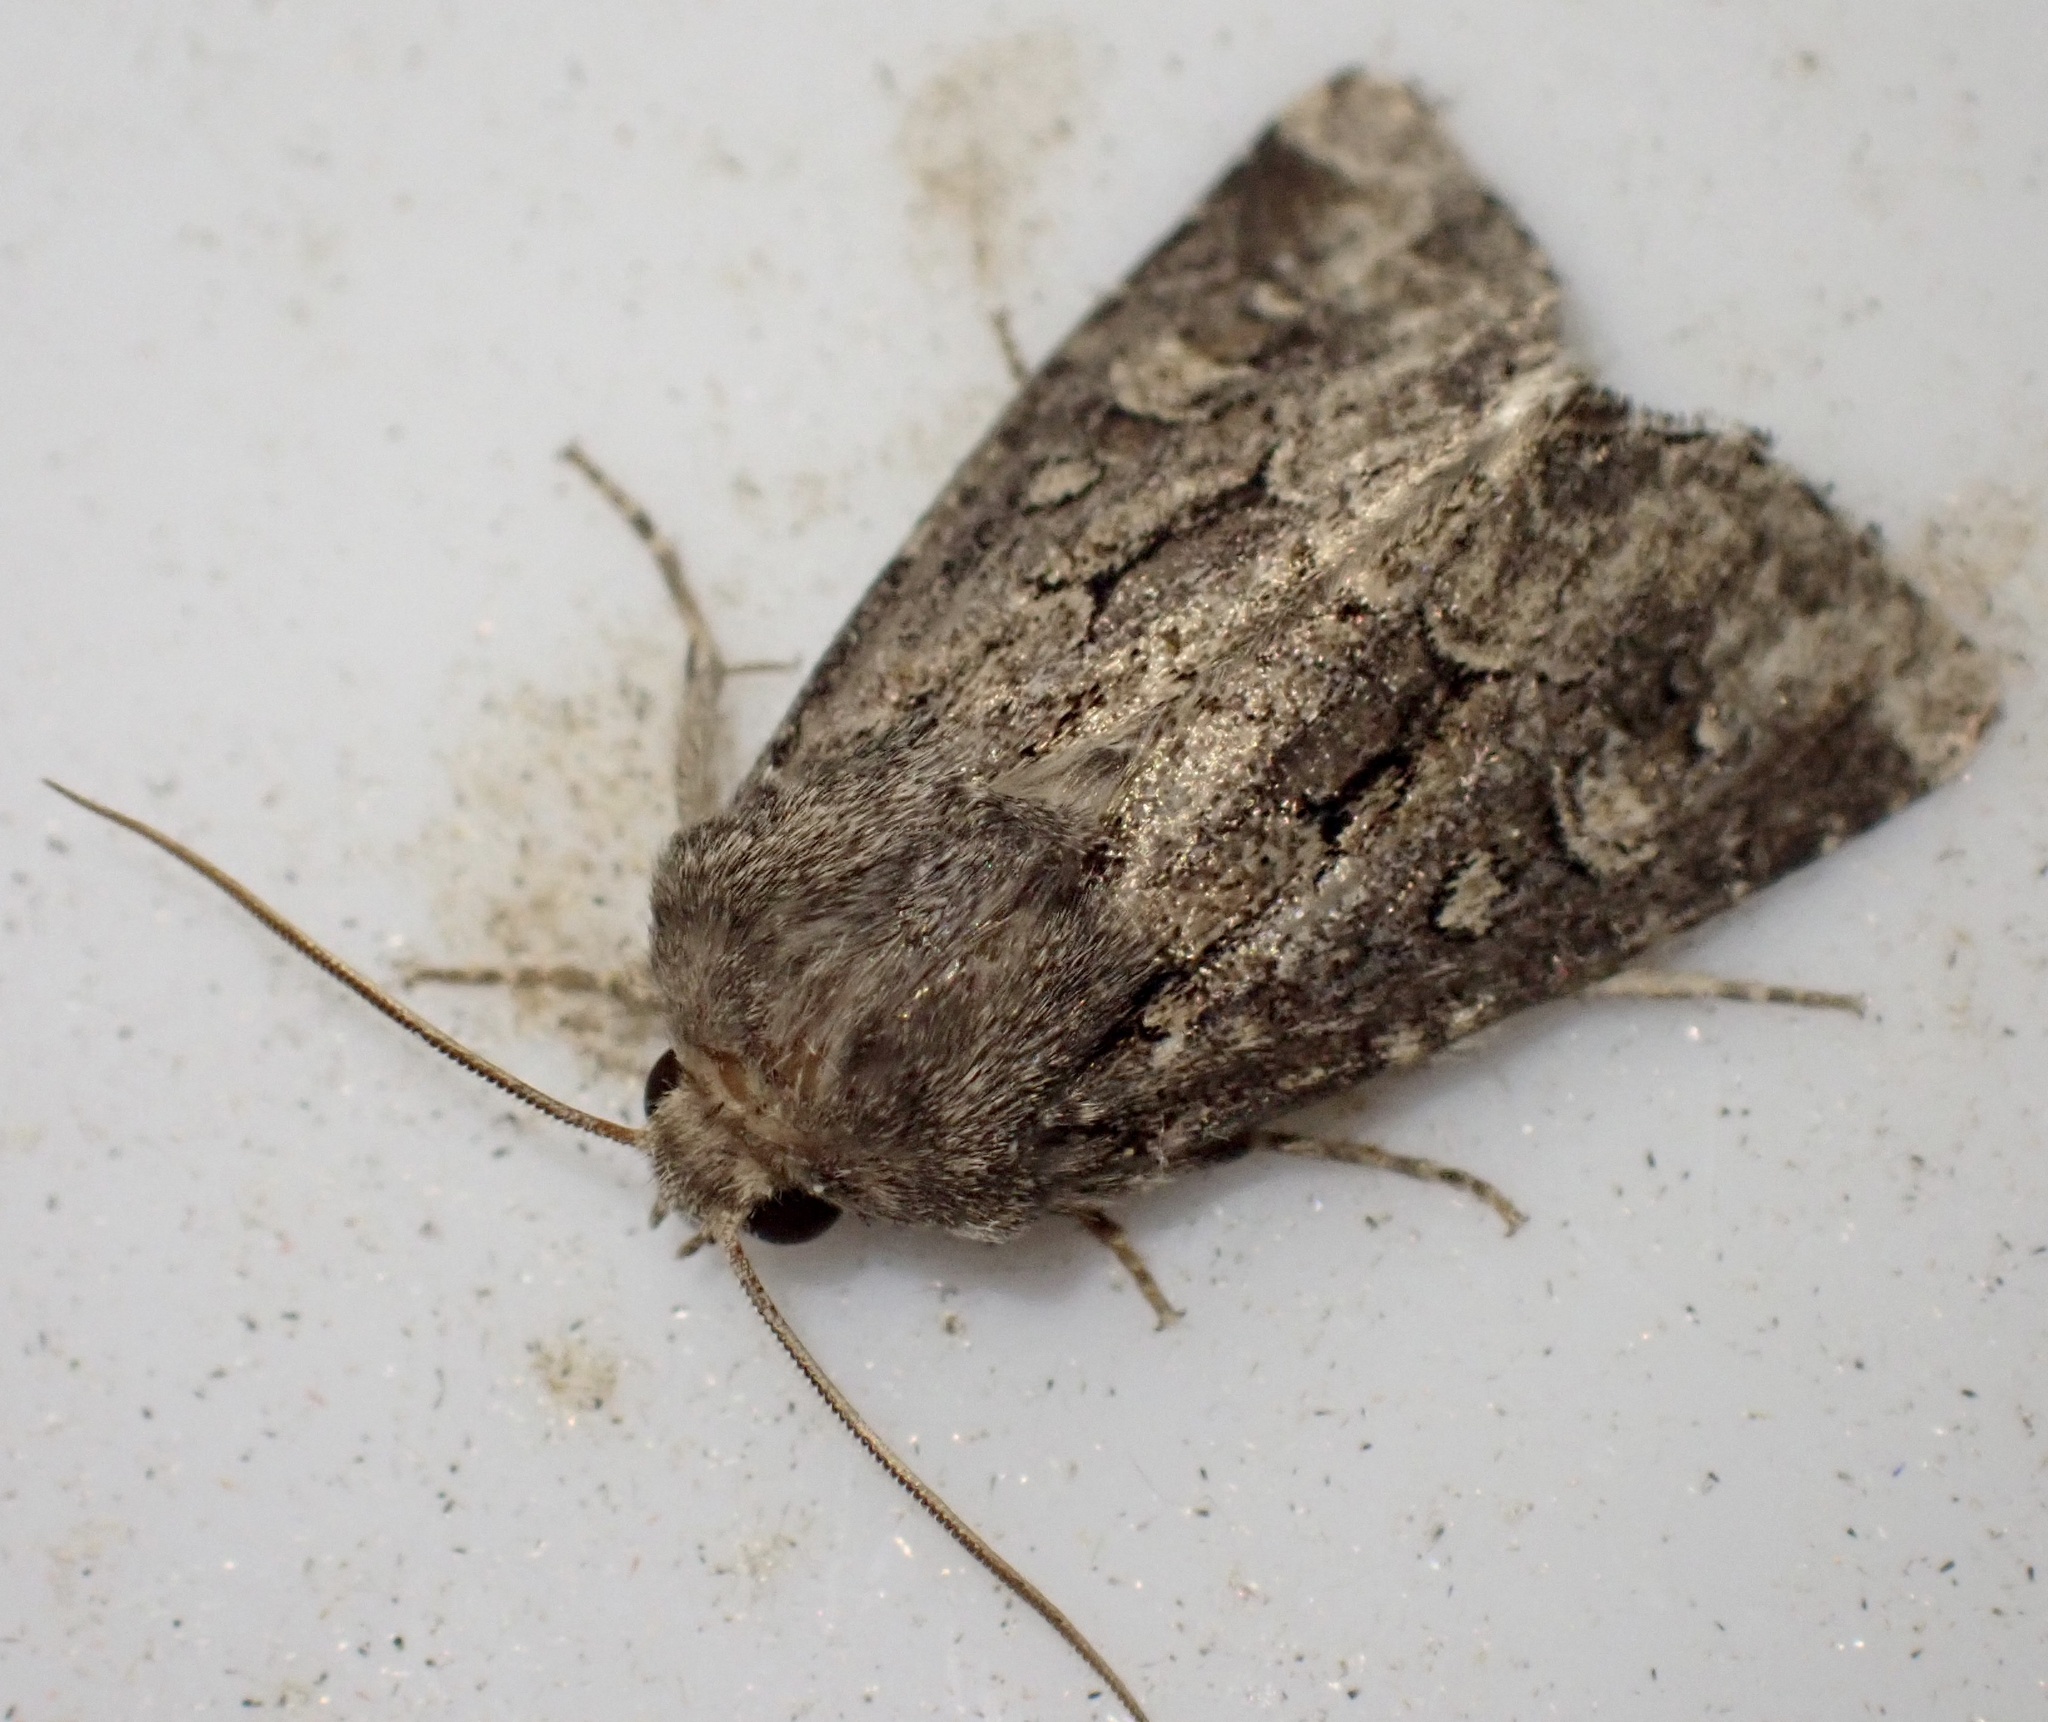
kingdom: Animalia
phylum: Arthropoda
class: Insecta
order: Lepidoptera
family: Noctuidae
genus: Luperina
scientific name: Luperina testacea
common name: Flounced rustic
